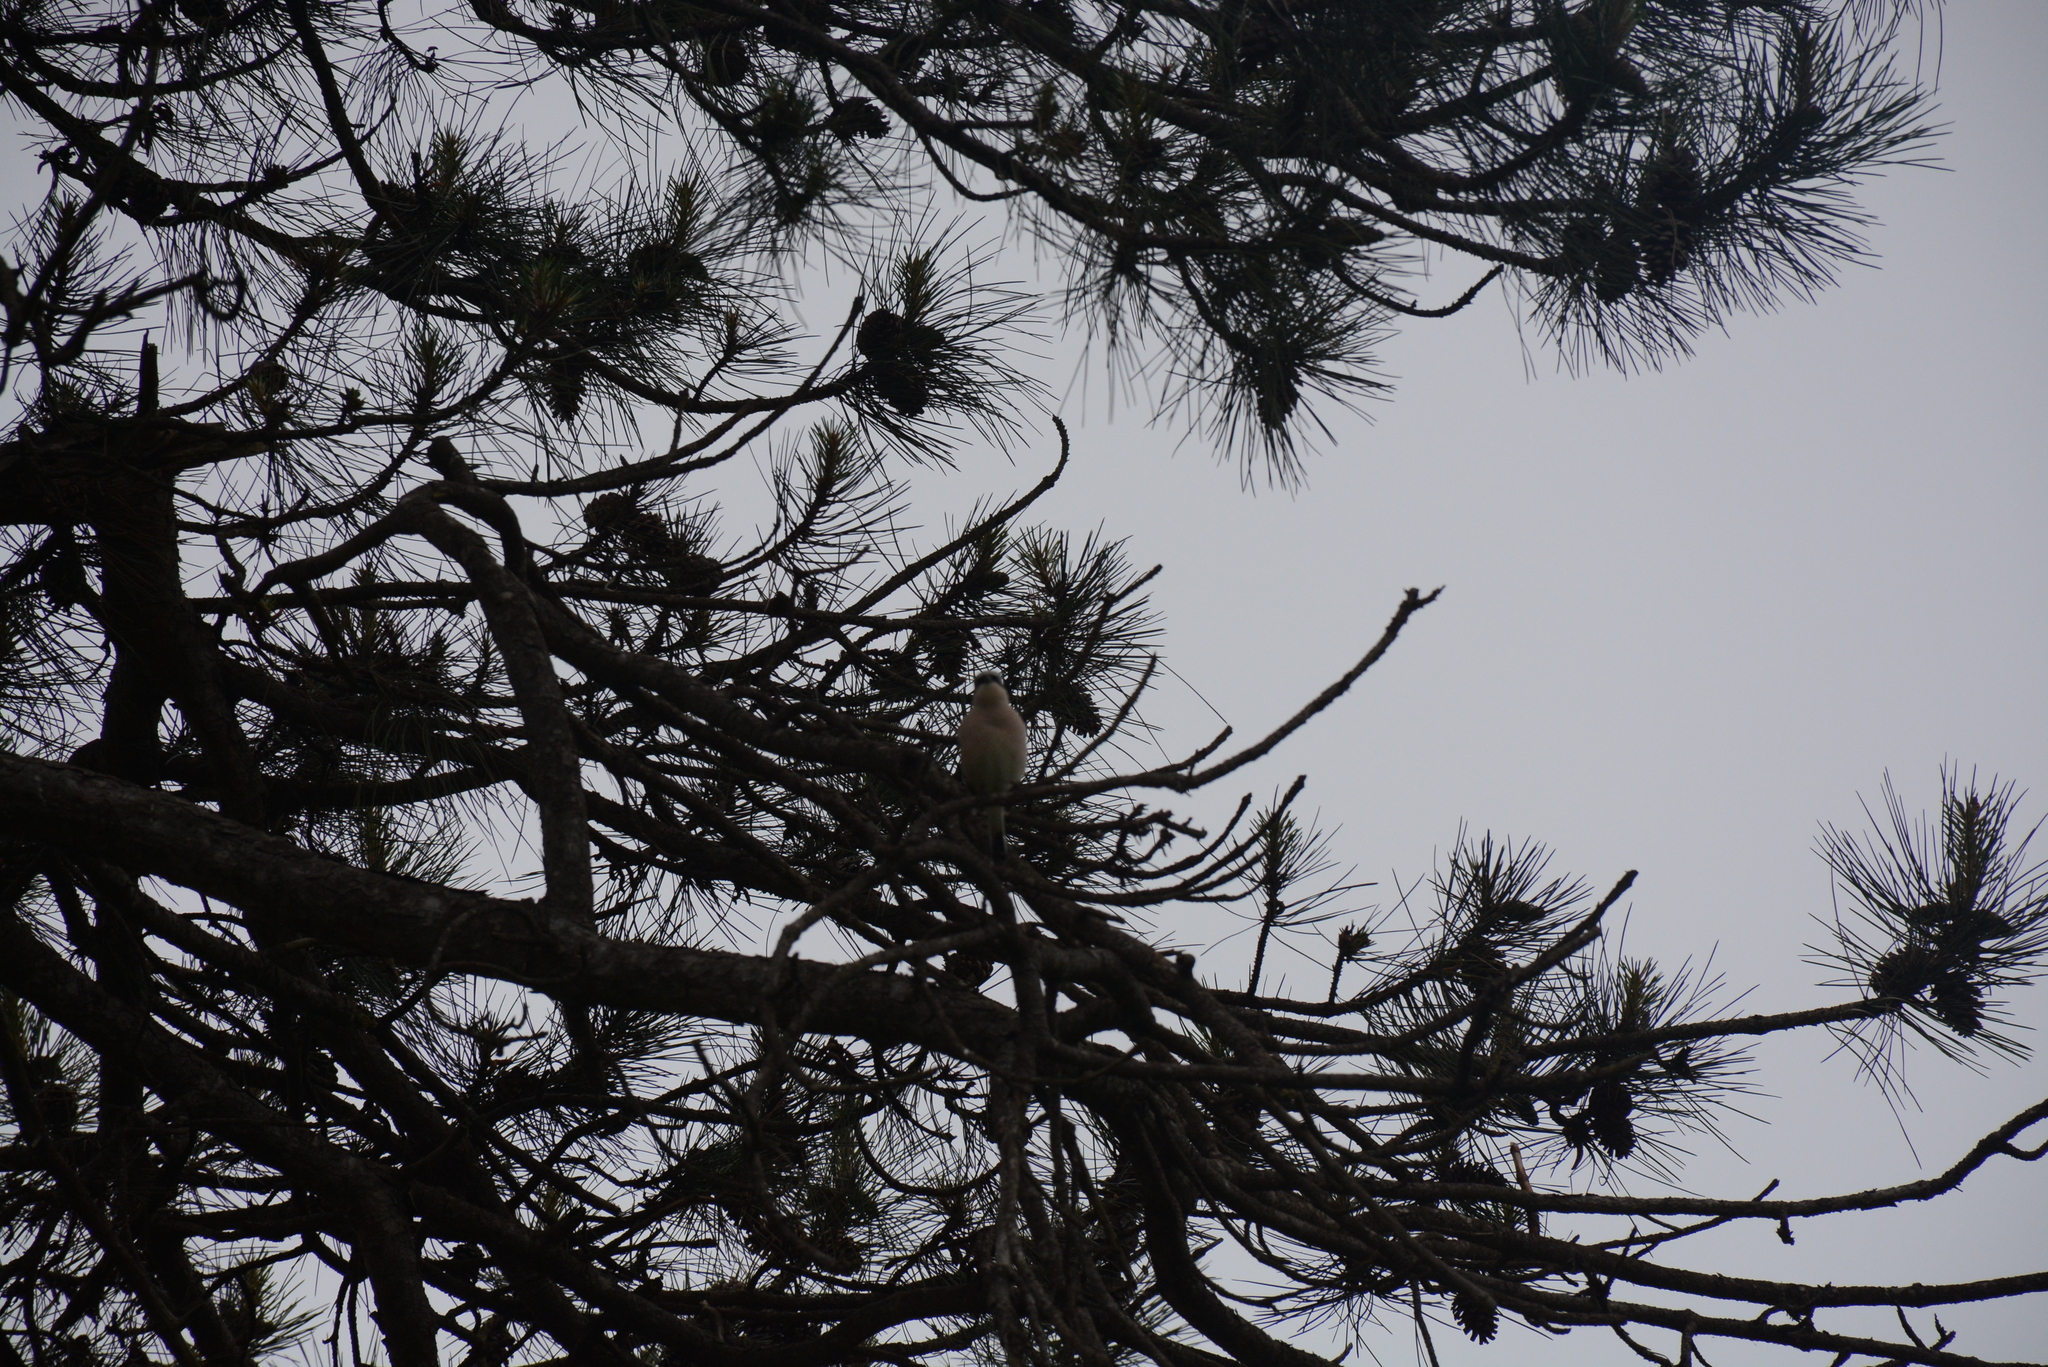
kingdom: Animalia
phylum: Chordata
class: Aves
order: Passeriformes
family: Laniidae
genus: Lanius
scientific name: Lanius collurio
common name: Red-backed shrike
